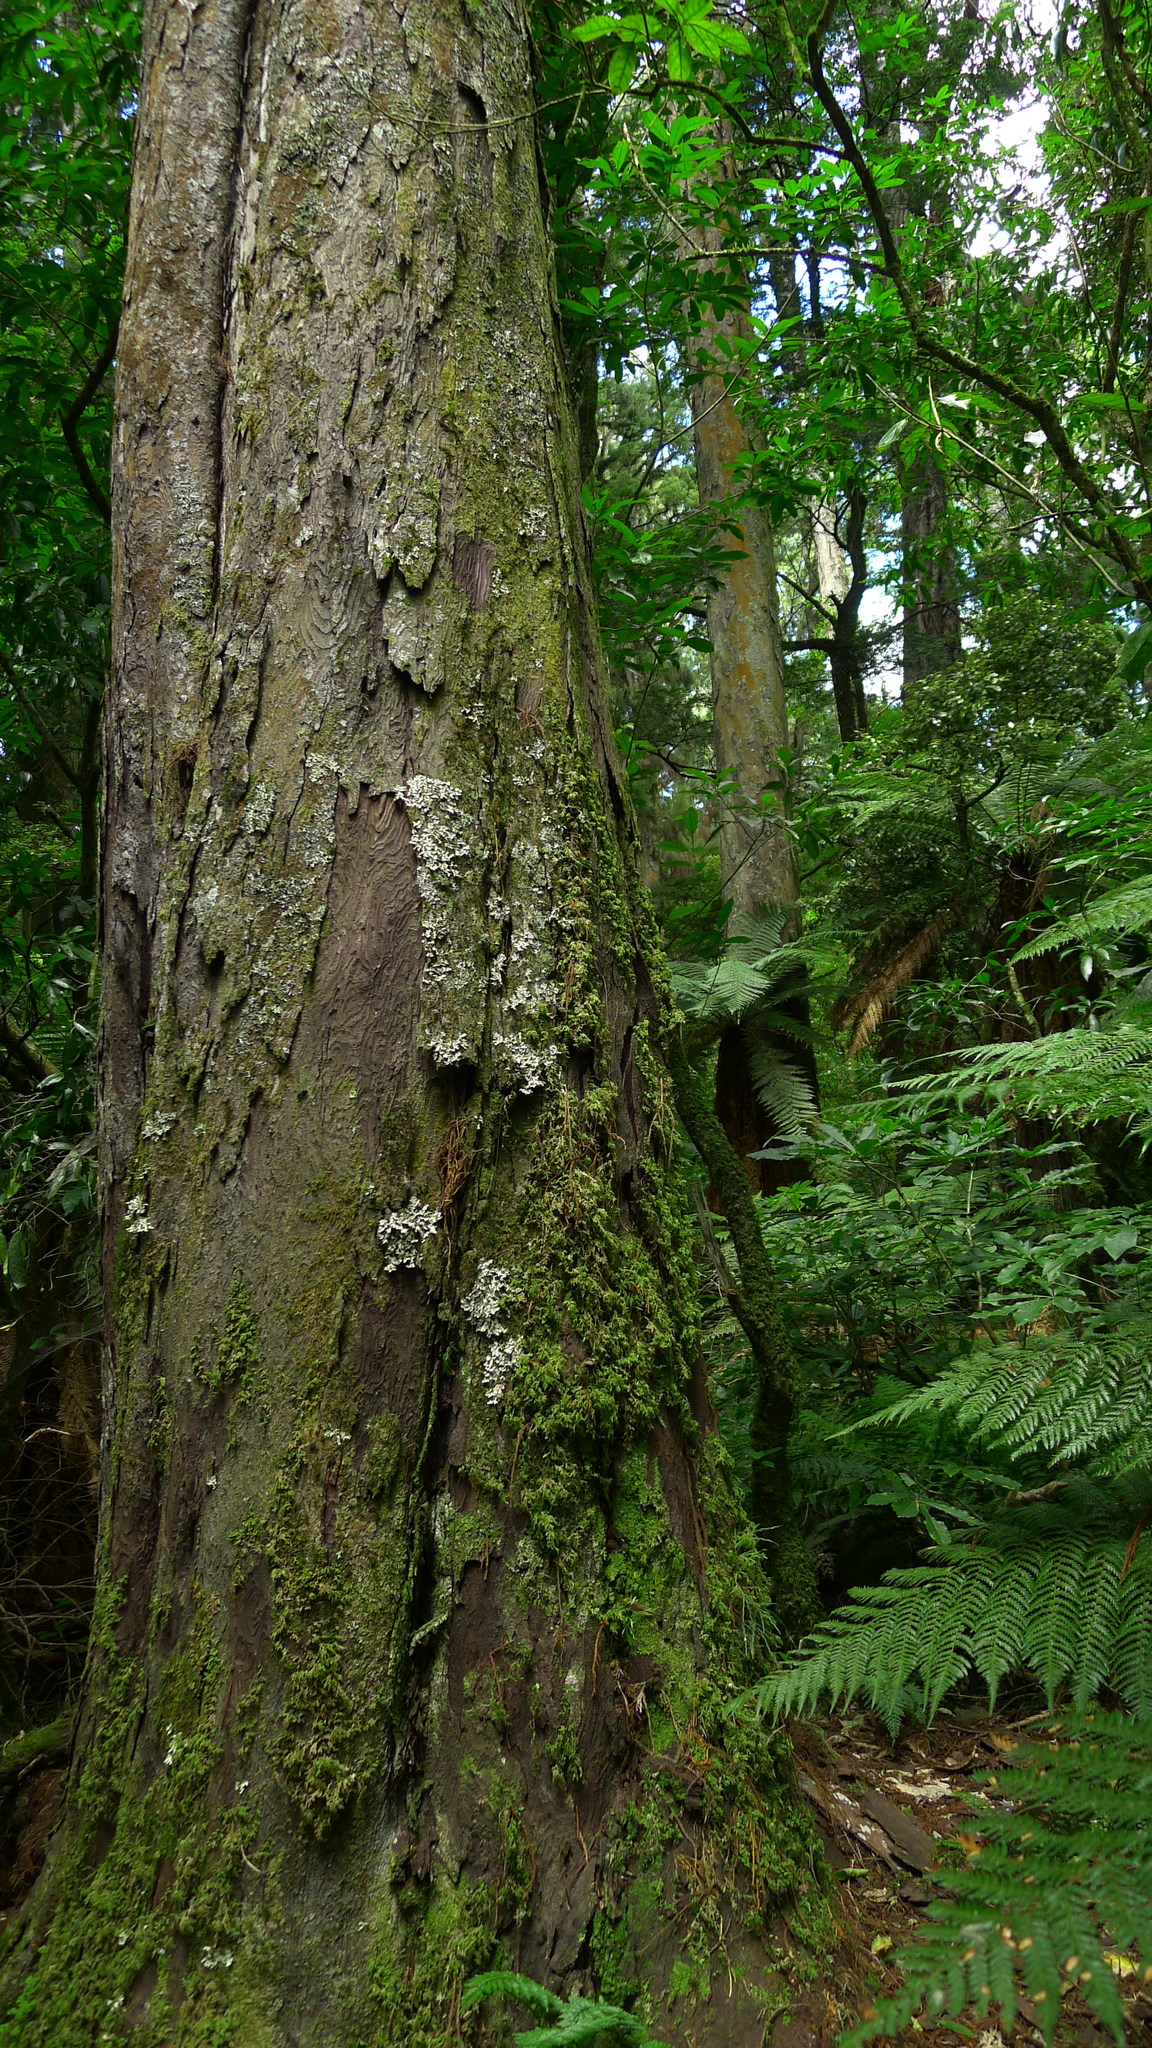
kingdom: Plantae
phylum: Tracheophyta
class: Pinopsida
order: Pinales
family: Podocarpaceae
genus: Dacrydium
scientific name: Dacrydium cupressinum
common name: Red pine
